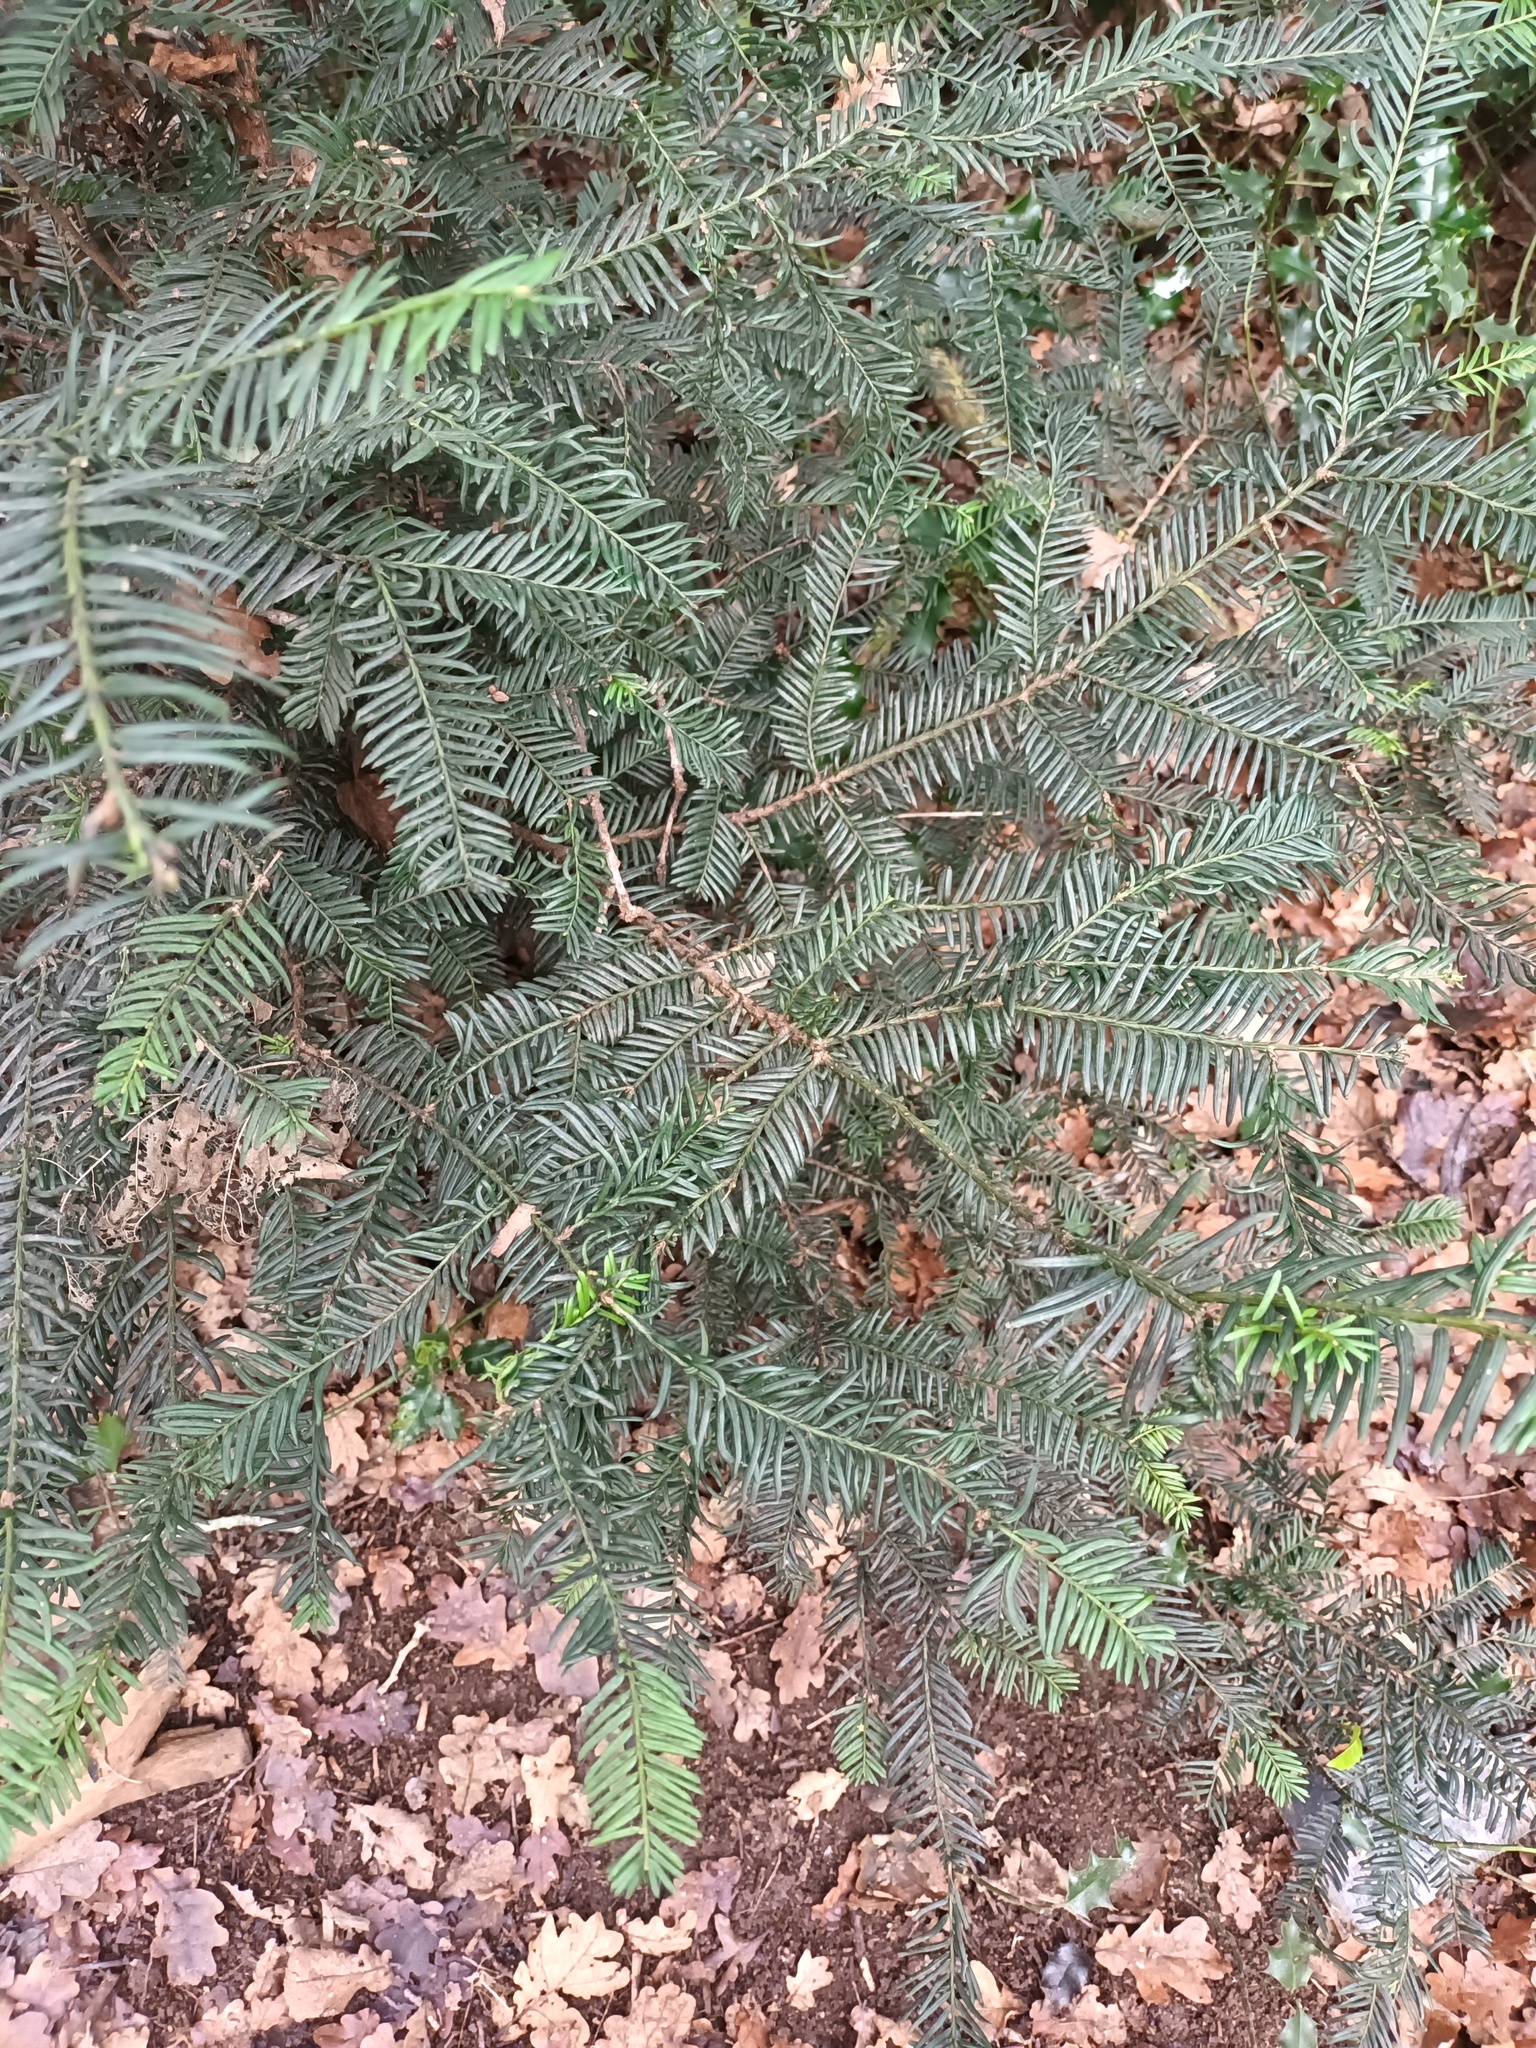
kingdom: Plantae
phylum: Tracheophyta
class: Pinopsida
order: Pinales
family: Taxaceae
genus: Taxus
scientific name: Taxus baccata
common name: Yew
